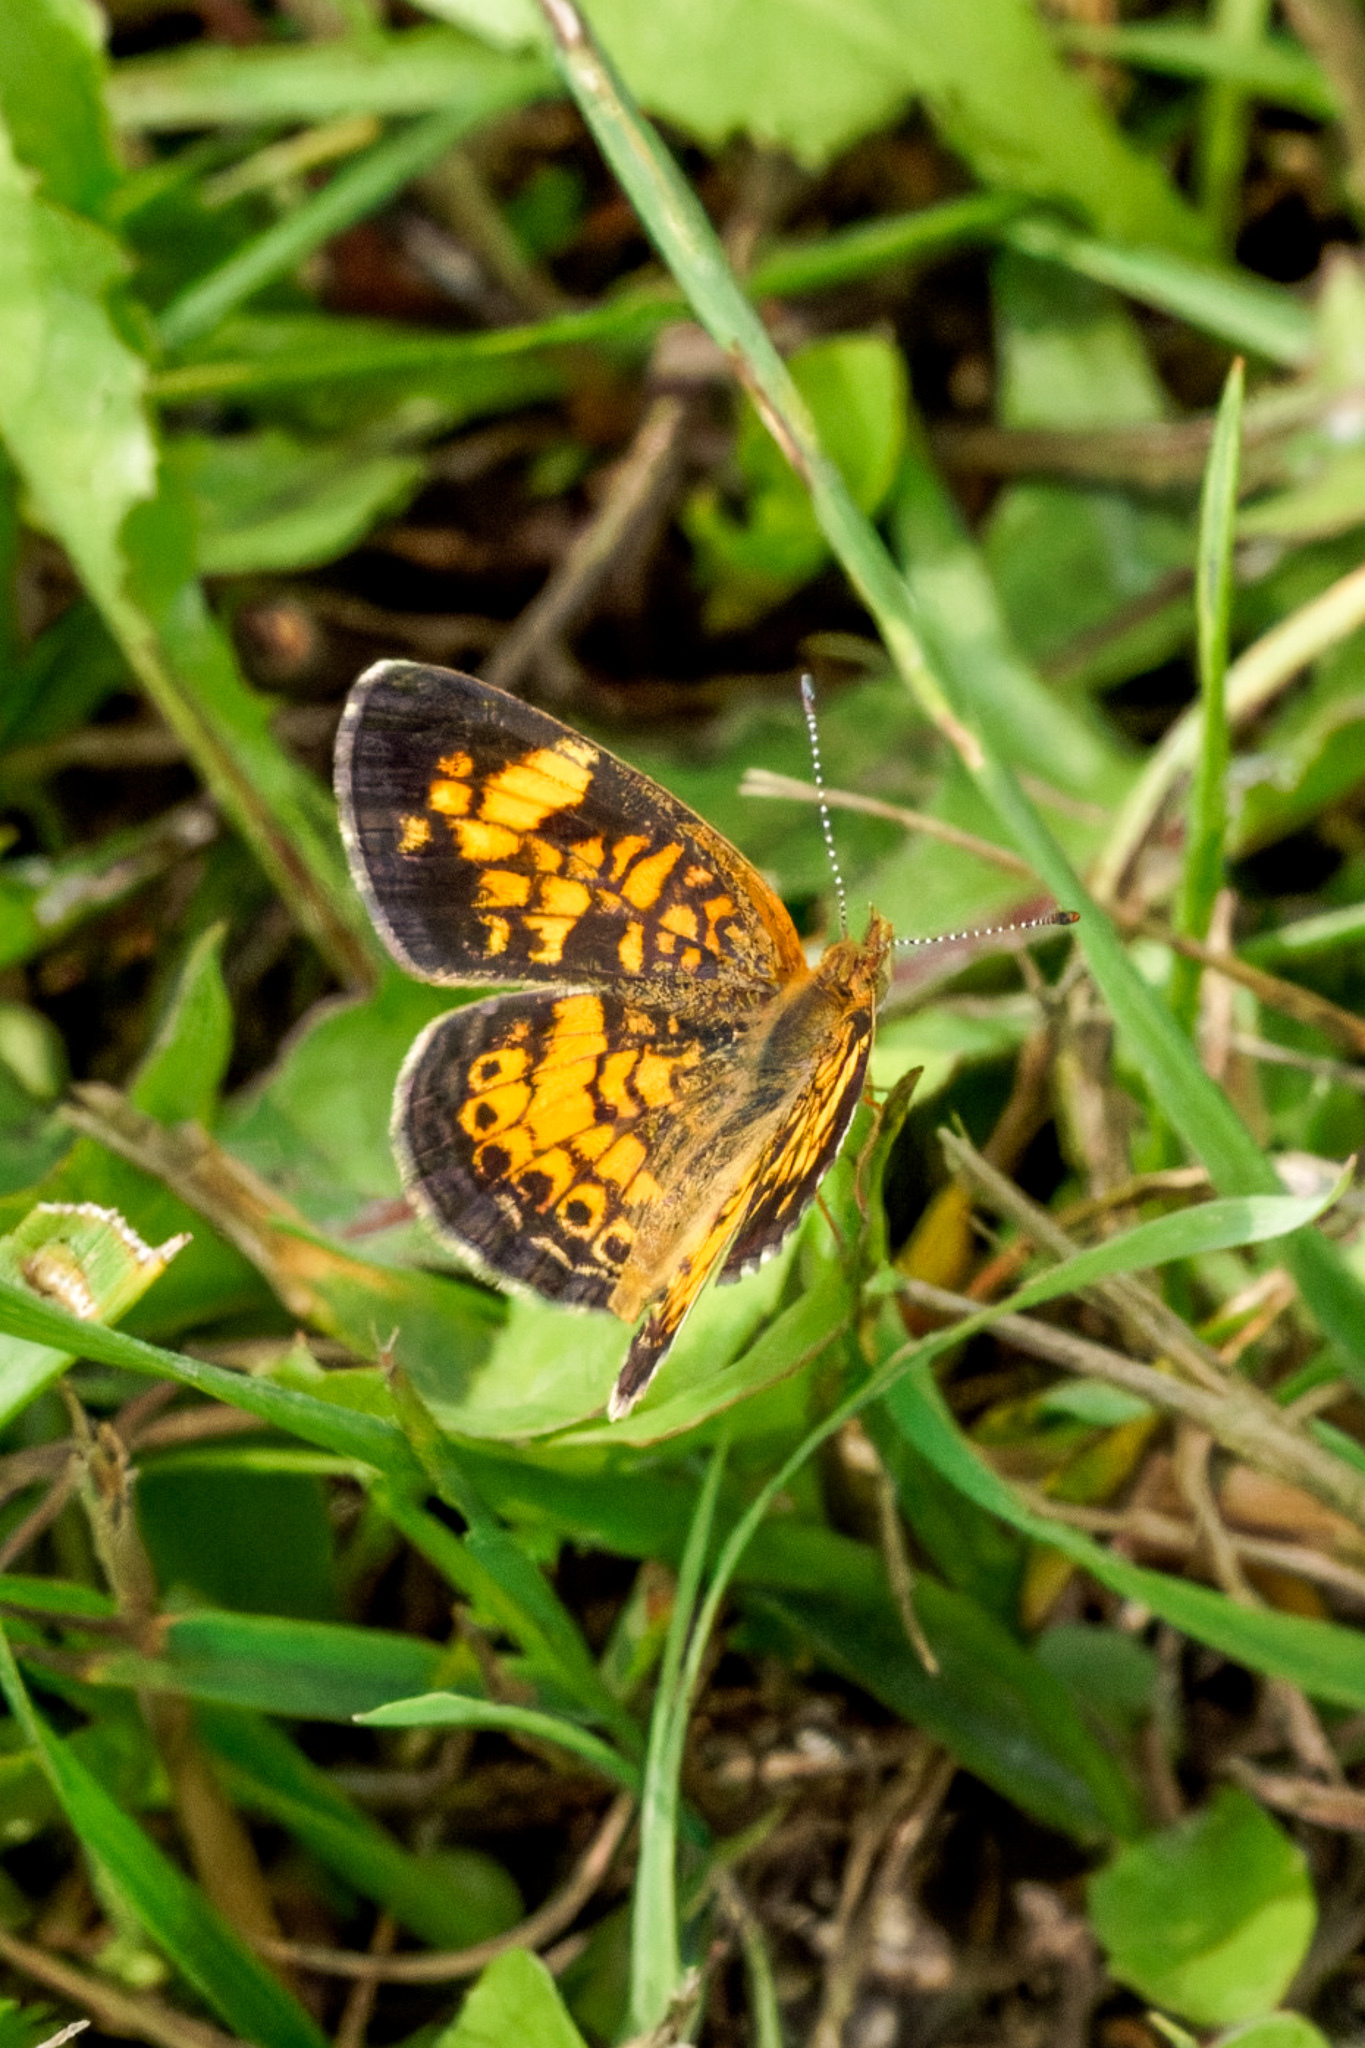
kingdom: Animalia
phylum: Arthropoda
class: Insecta
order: Lepidoptera
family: Nymphalidae
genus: Phyciodes
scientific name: Phyciodes tharos
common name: Pearl crescent
